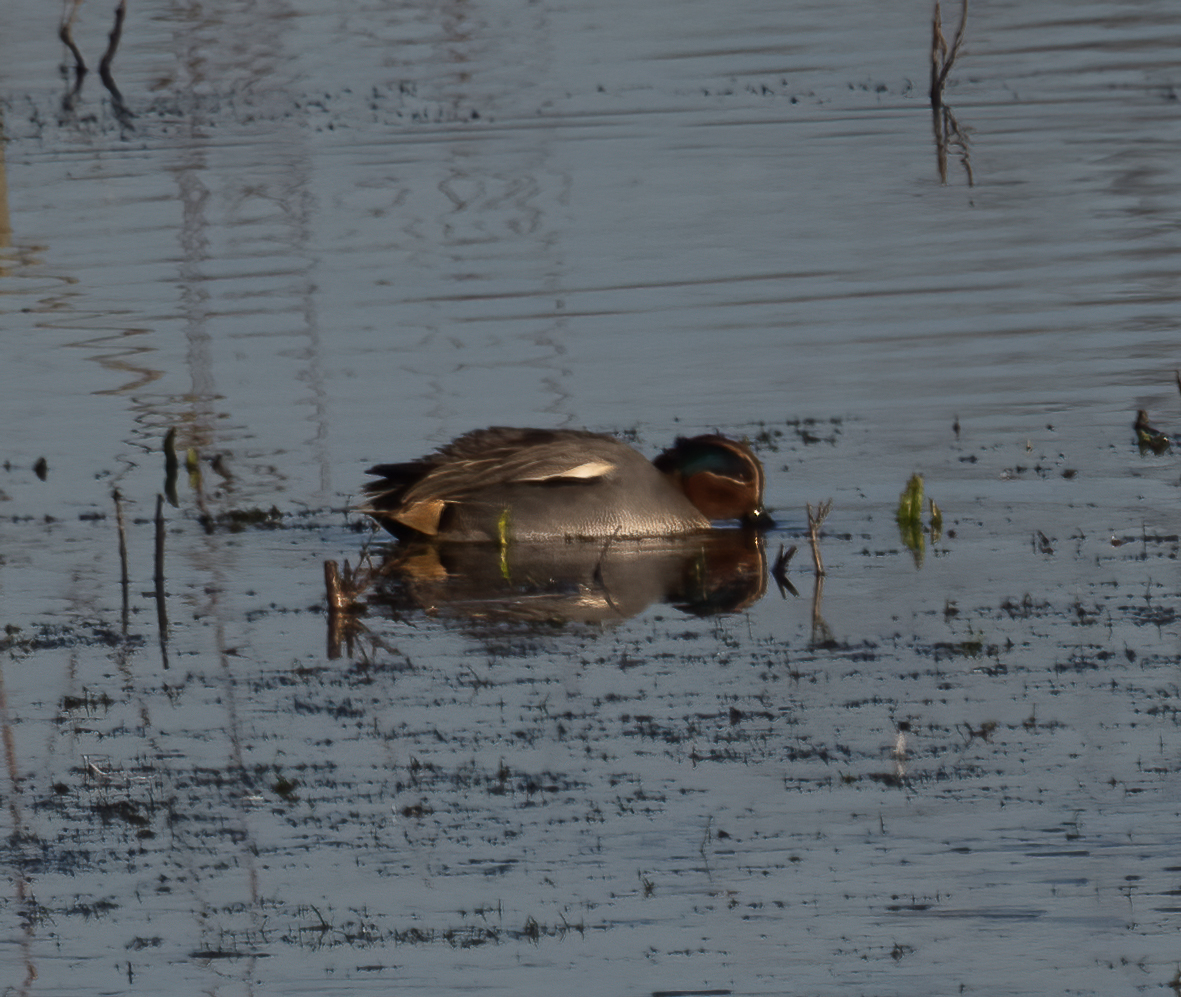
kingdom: Animalia
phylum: Chordata
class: Aves
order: Anseriformes
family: Anatidae
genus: Anas
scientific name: Anas crecca
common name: Eurasian teal
